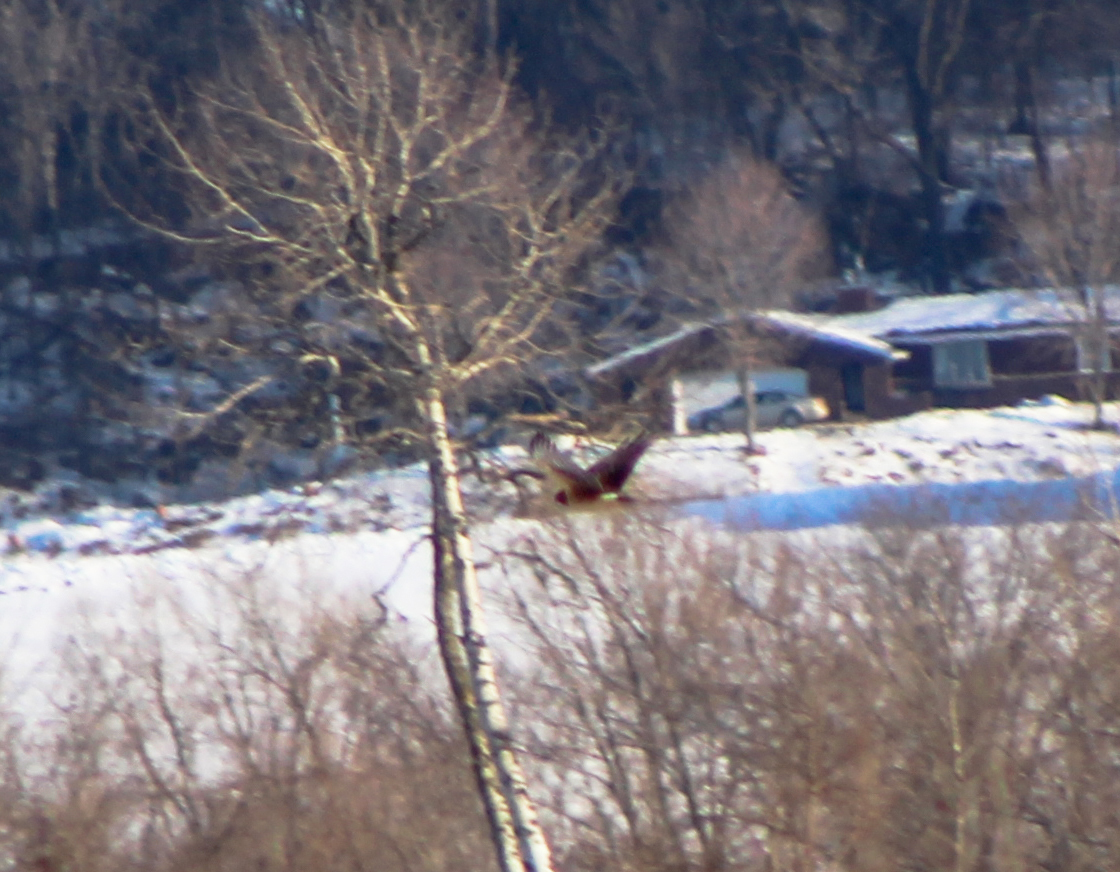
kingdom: Animalia
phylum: Chordata
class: Aves
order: Accipitriformes
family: Accipitridae
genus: Circus
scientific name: Circus cyaneus
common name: Hen harrier
